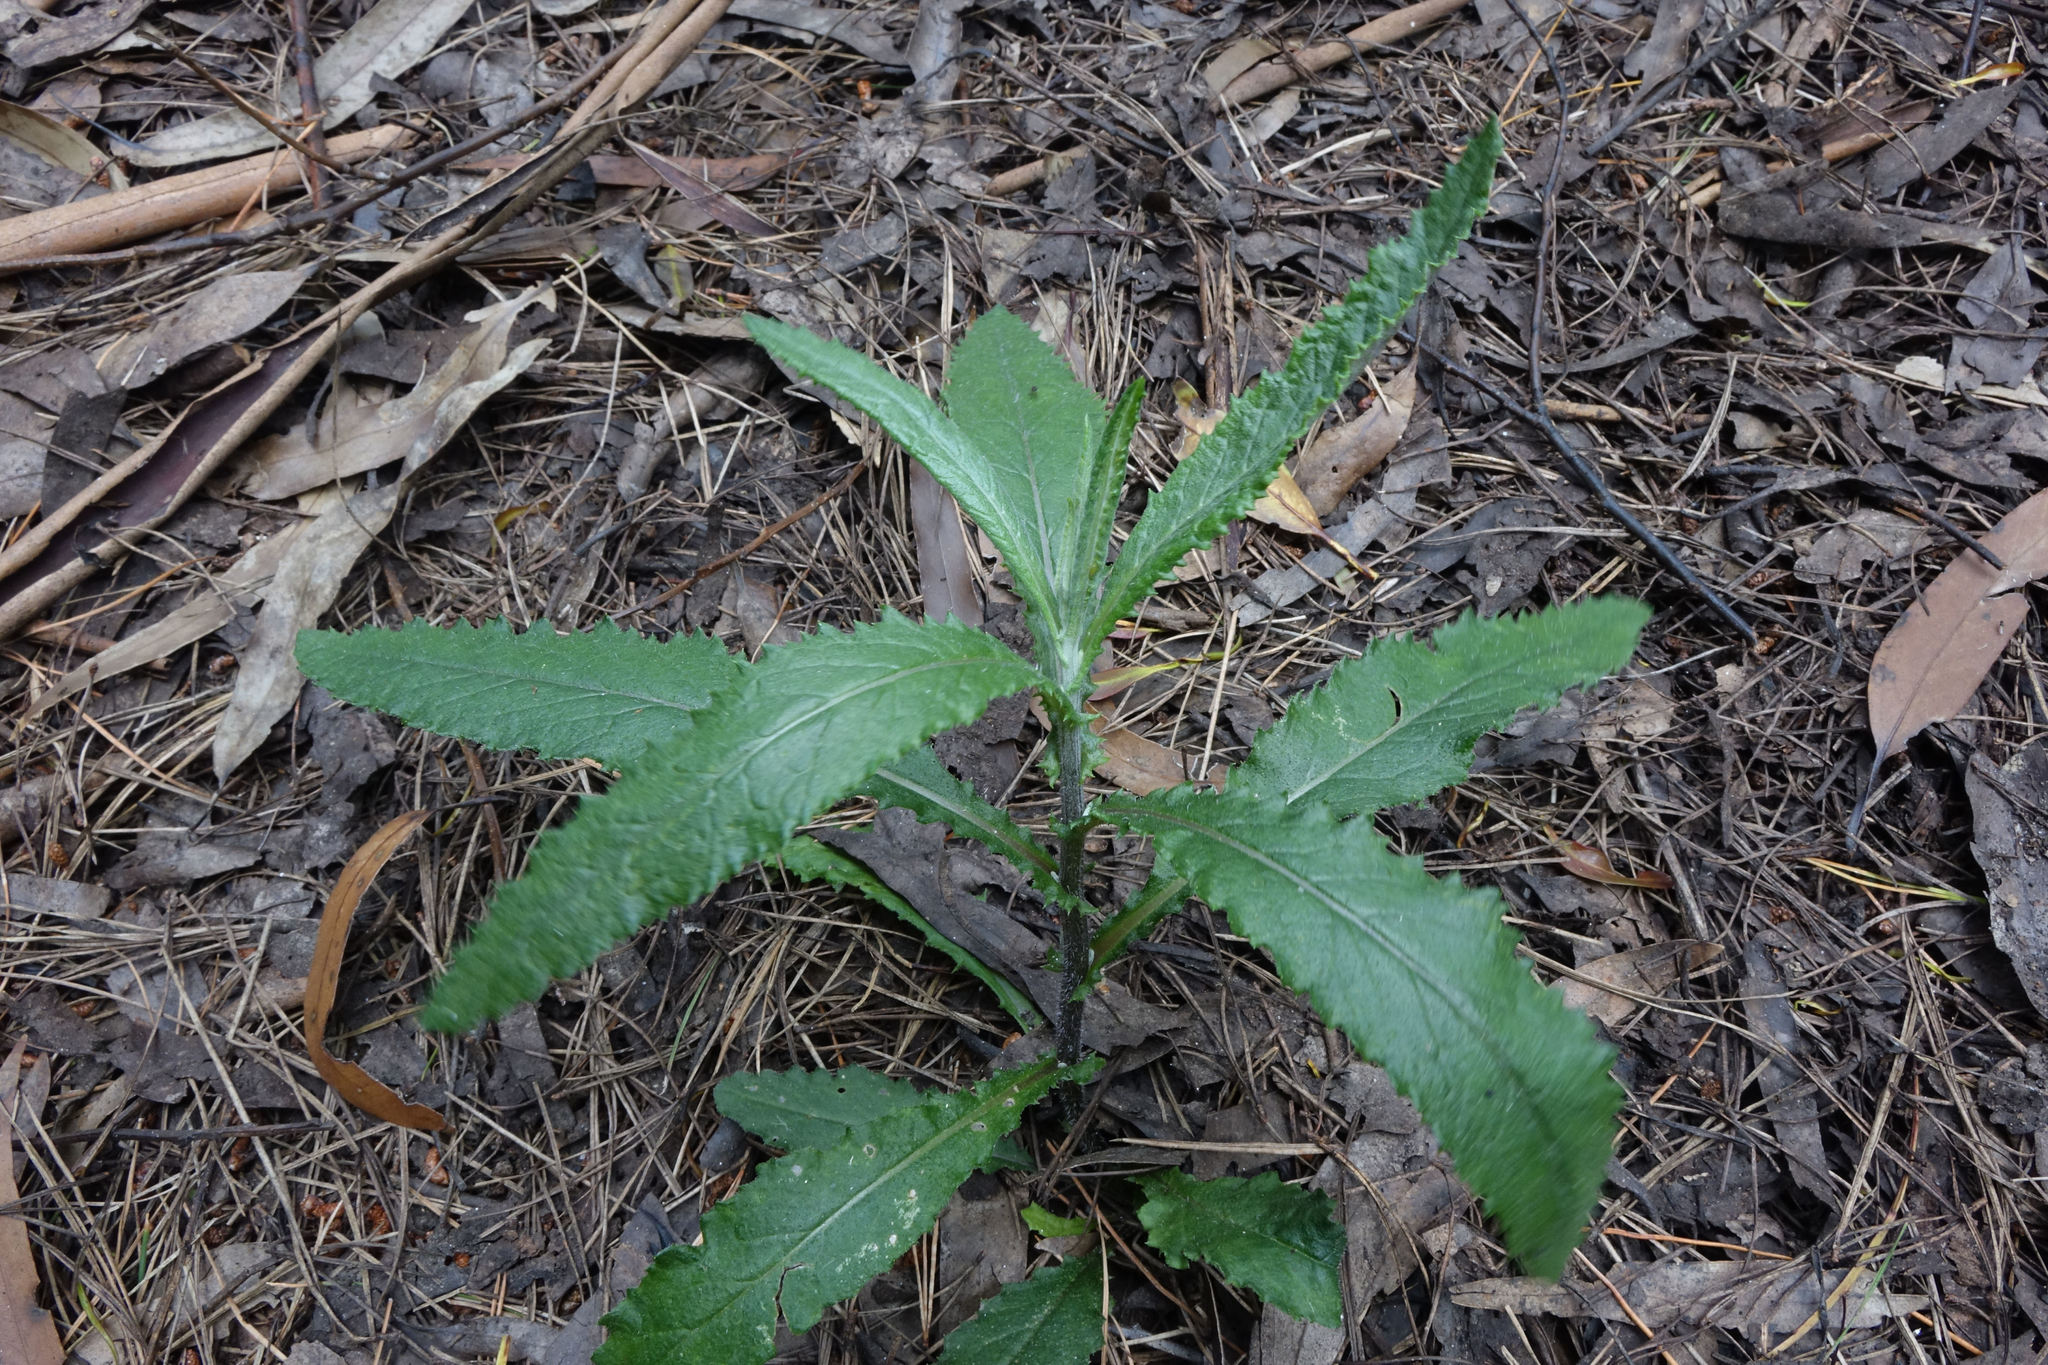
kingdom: Plantae
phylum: Tracheophyta
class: Magnoliopsida
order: Asterales
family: Asteraceae
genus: Senecio
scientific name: Senecio minimus
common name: Toothed fireweed
